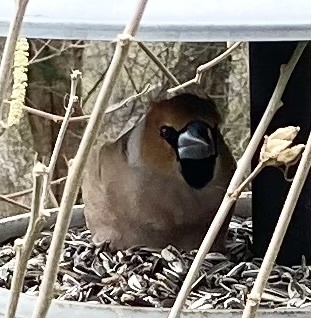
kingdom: Animalia
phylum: Chordata
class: Aves
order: Passeriformes
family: Fringillidae
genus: Coccothraustes
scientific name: Coccothraustes coccothraustes
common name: Hawfinch
